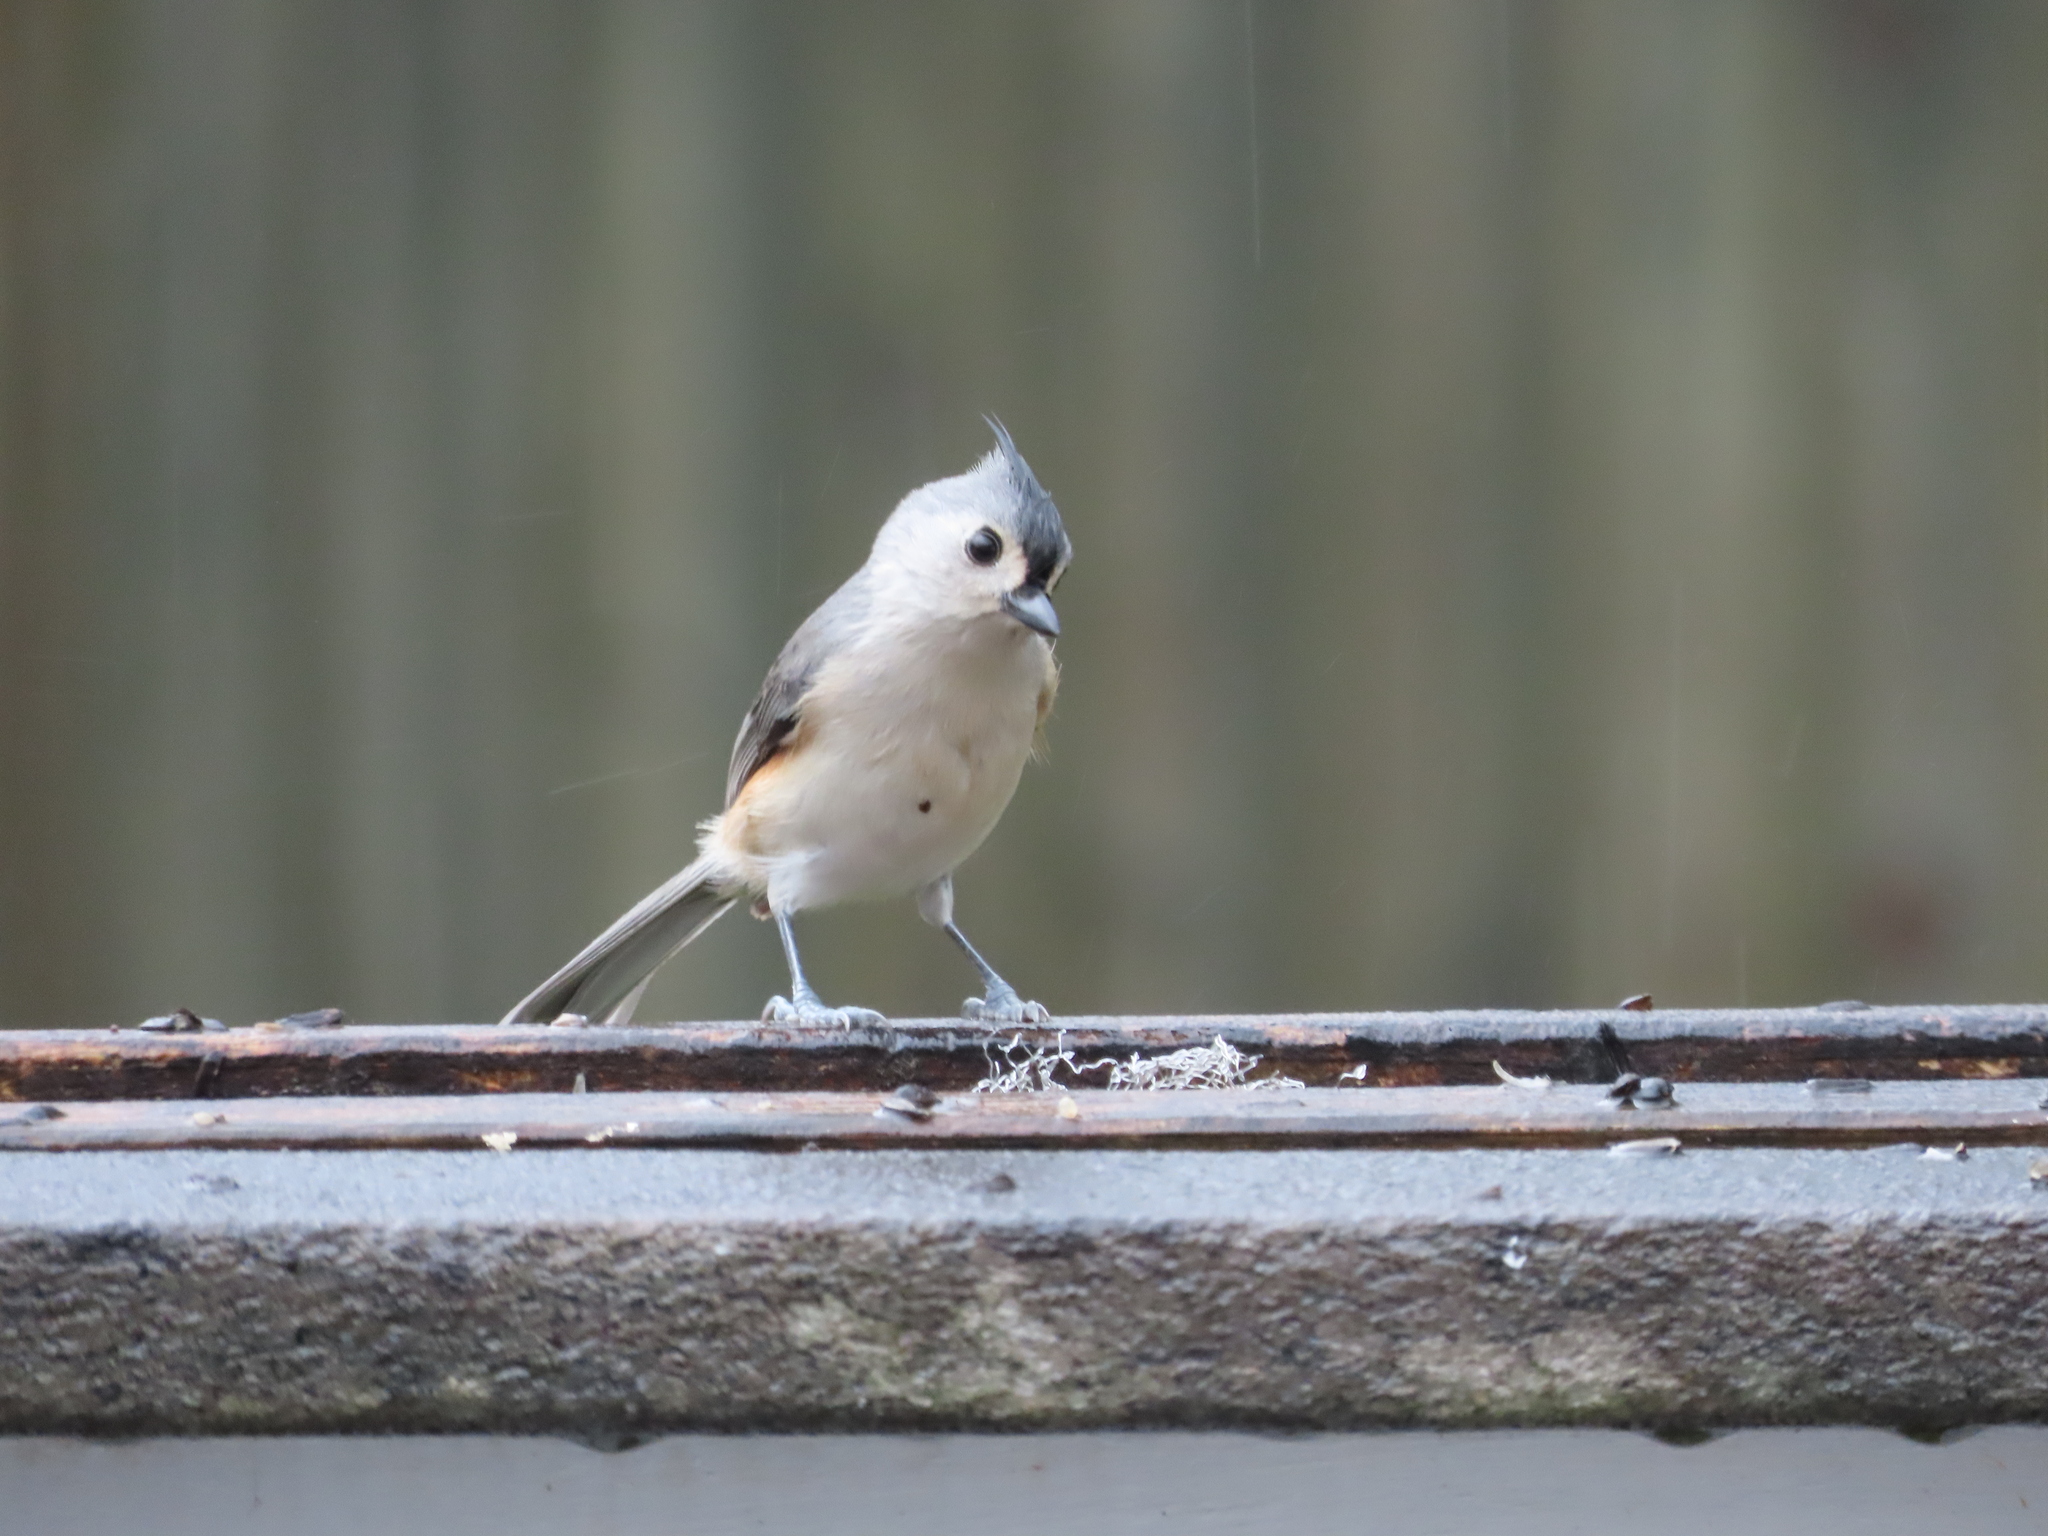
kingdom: Animalia
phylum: Chordata
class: Aves
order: Passeriformes
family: Paridae
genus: Baeolophus
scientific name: Baeolophus bicolor
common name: Tufted titmouse
